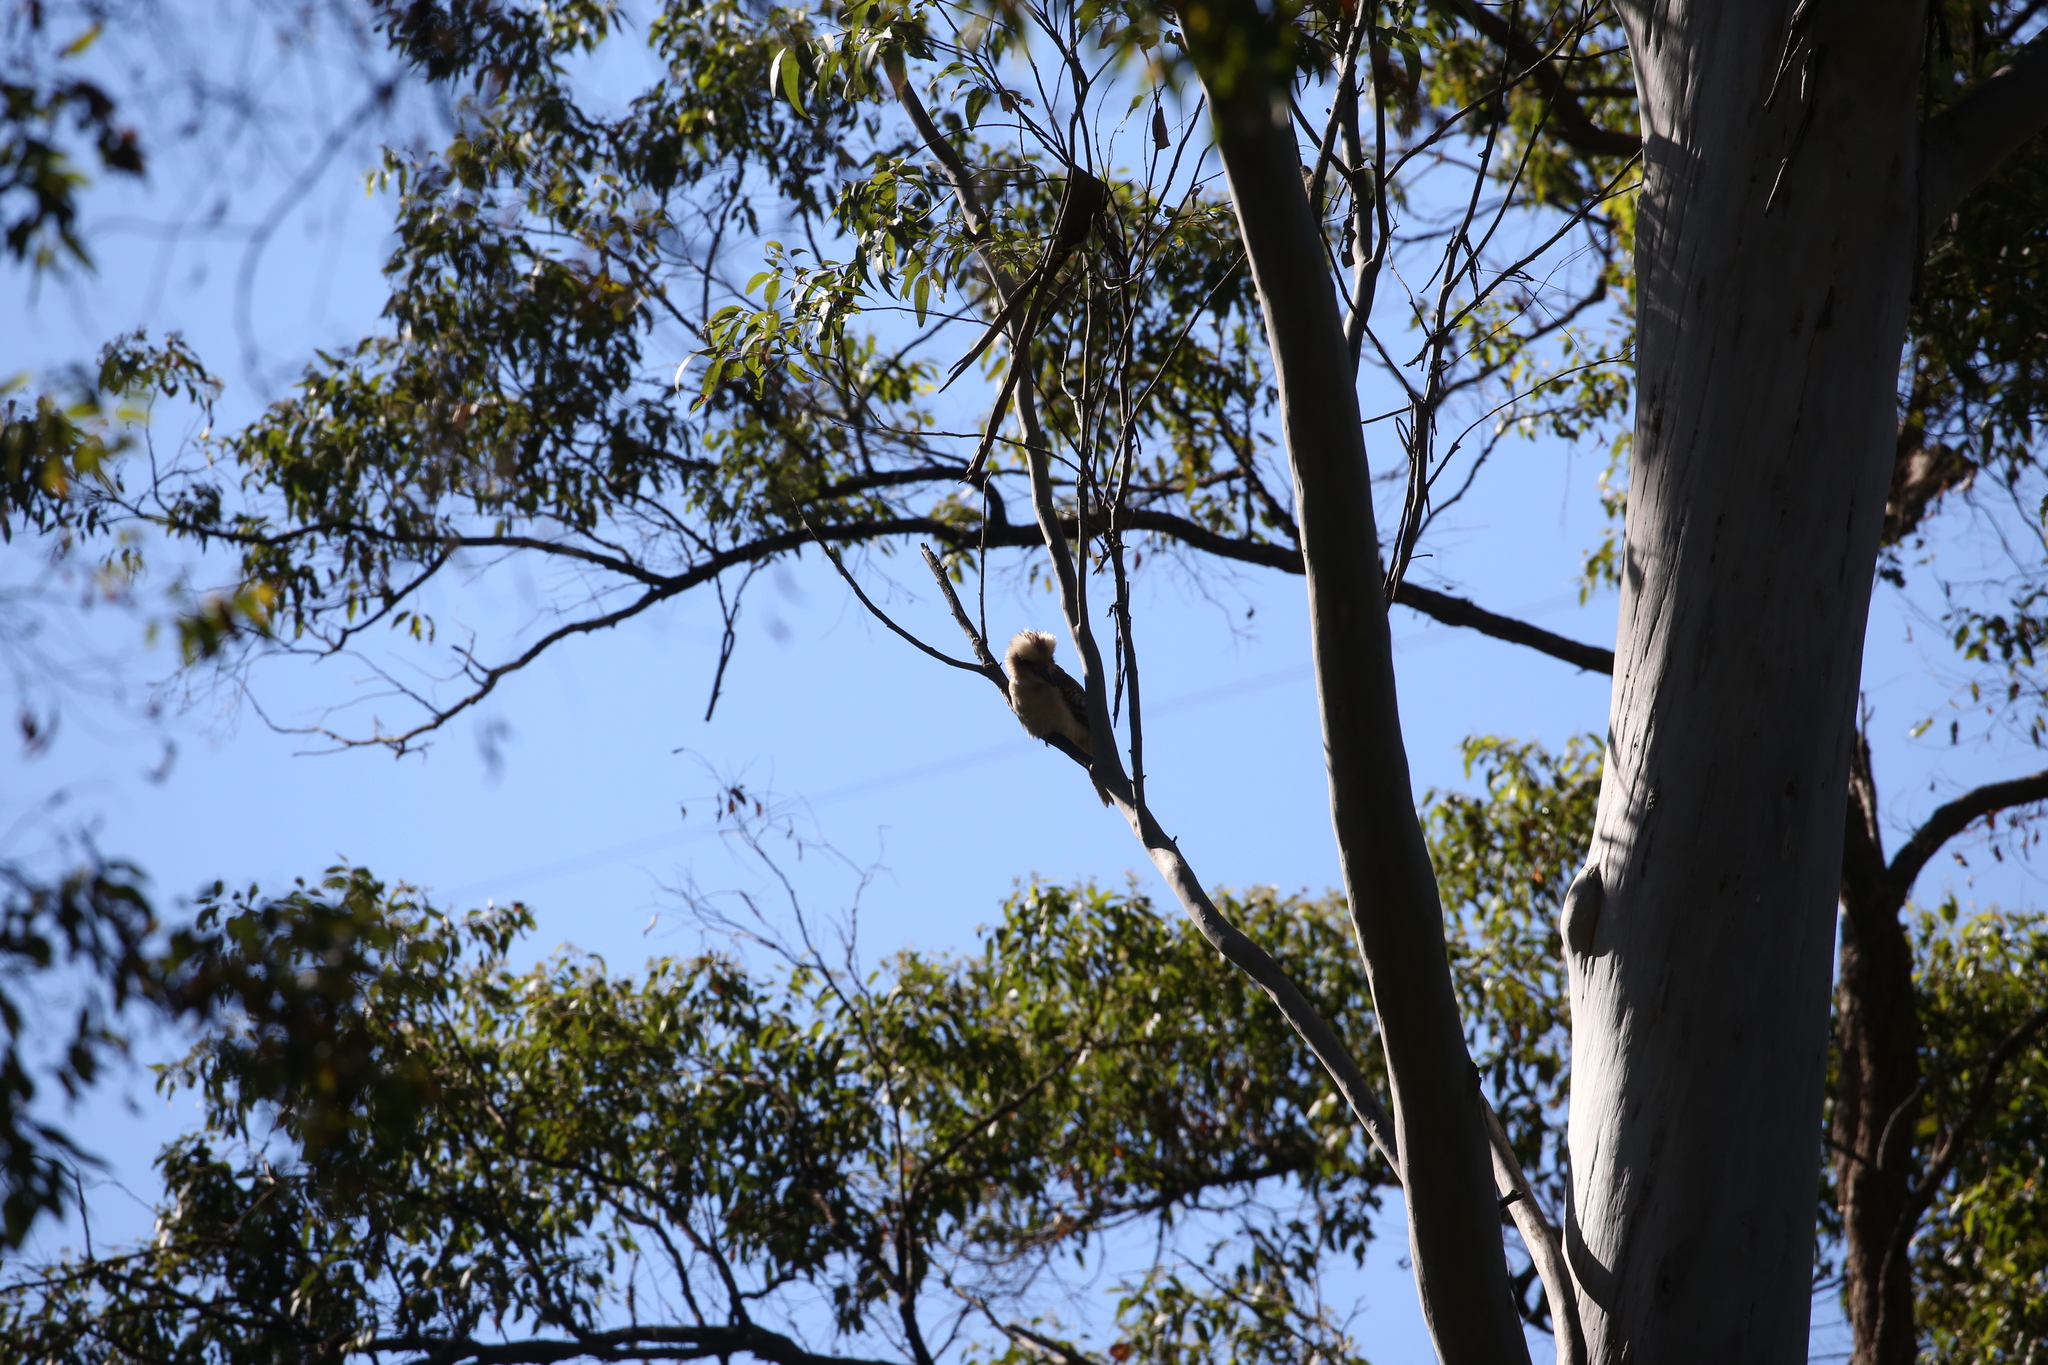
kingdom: Animalia
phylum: Chordata
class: Aves
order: Coraciiformes
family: Alcedinidae
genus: Dacelo
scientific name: Dacelo novaeguineae
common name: Laughing kookaburra
